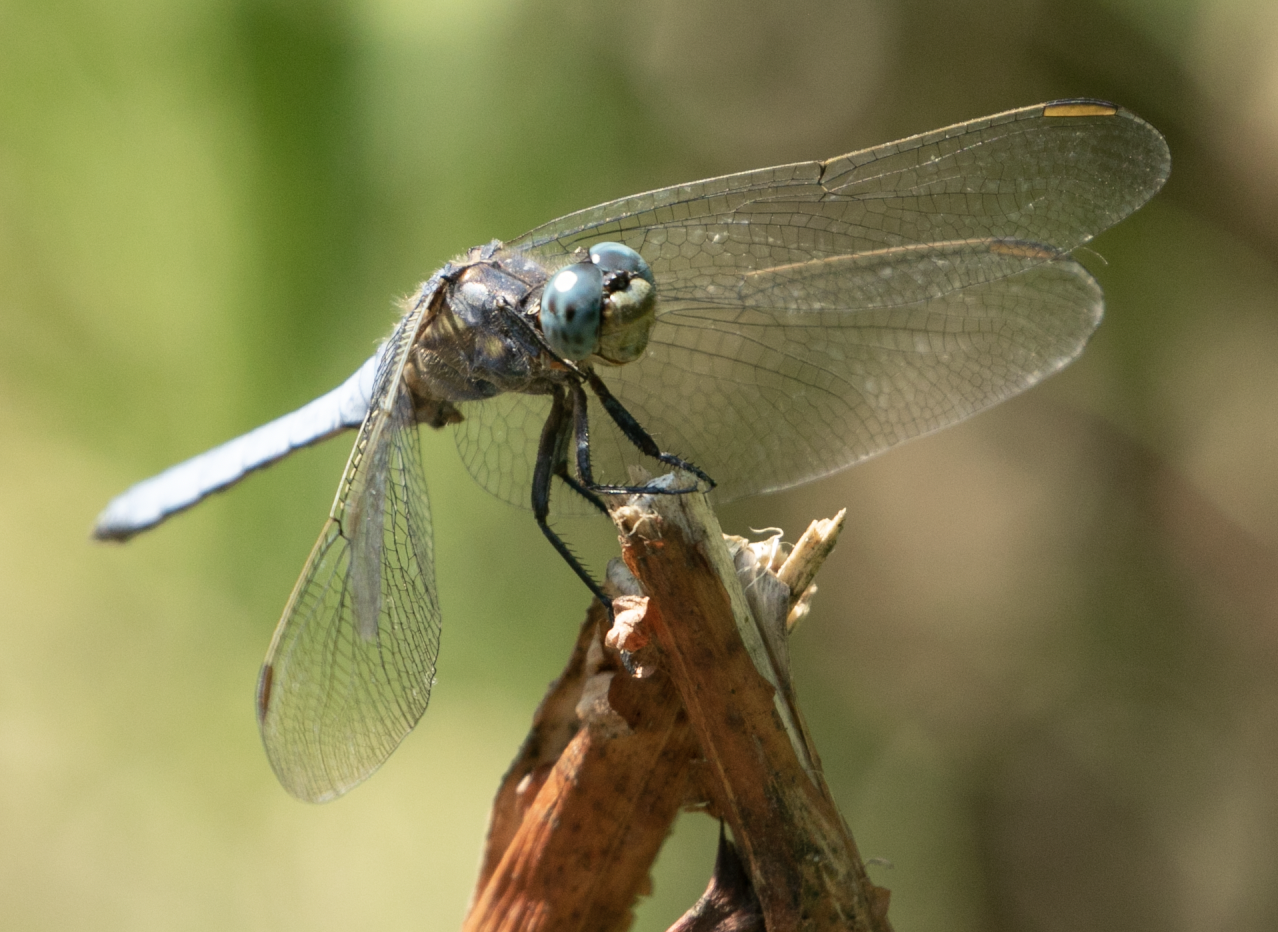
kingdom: Animalia
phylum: Arthropoda
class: Insecta
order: Odonata
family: Libellulidae
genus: Orthetrum
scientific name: Orthetrum coerulescens
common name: Keeled skimmer
